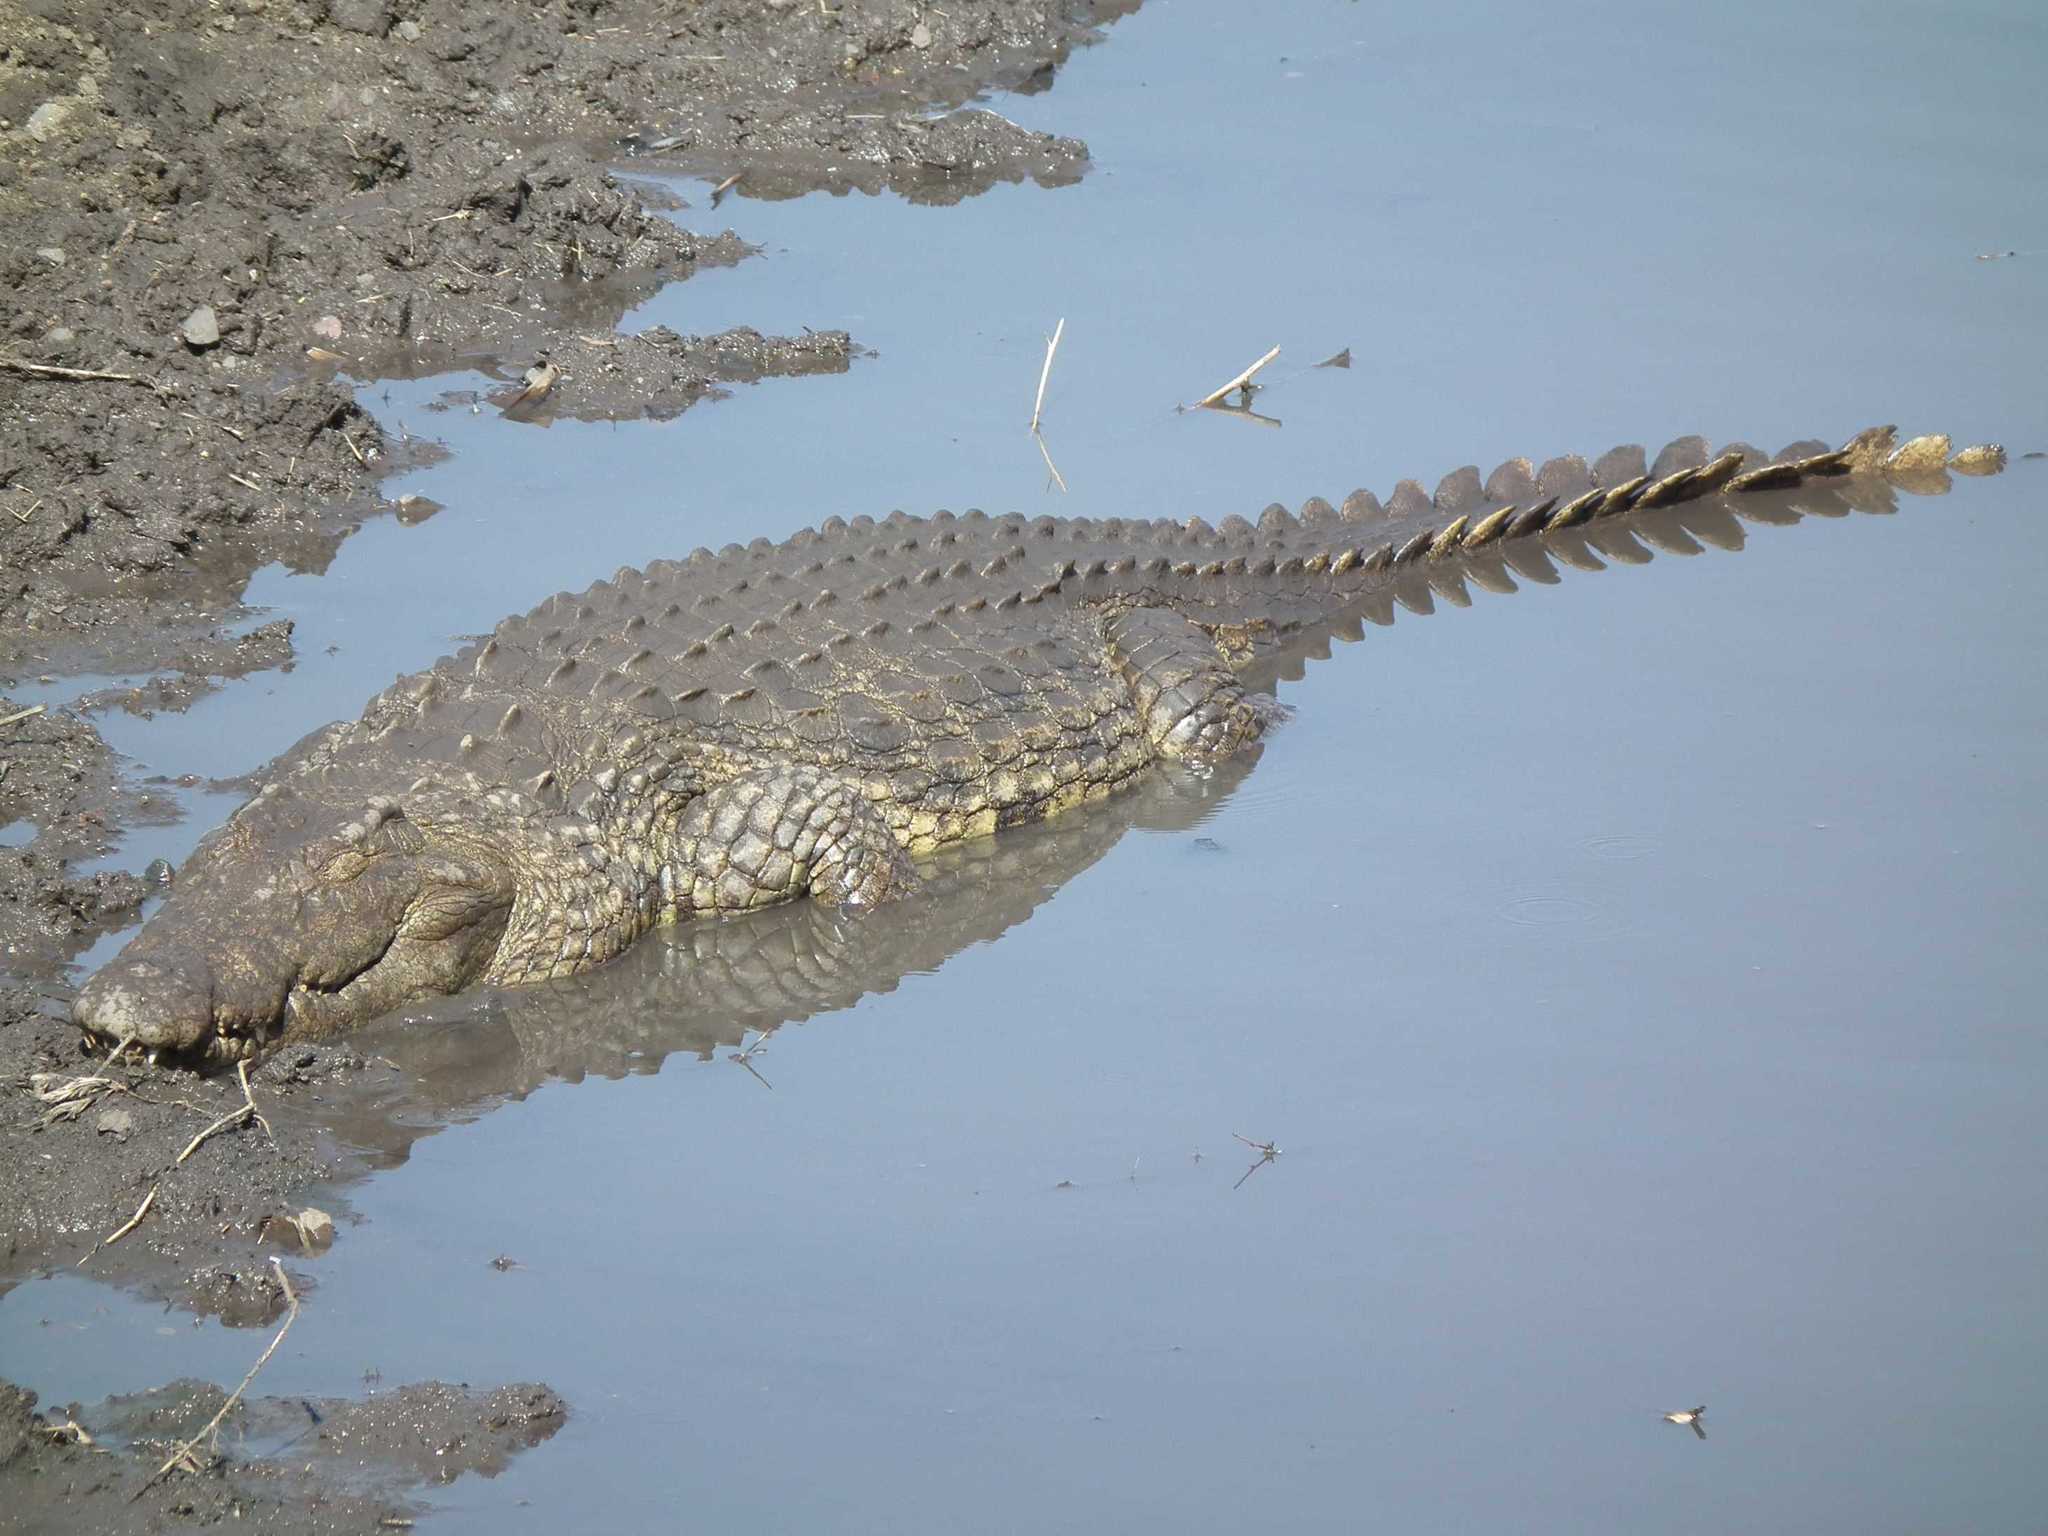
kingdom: Animalia
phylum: Chordata
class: Crocodylia
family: Crocodylidae
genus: Crocodylus
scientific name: Crocodylus niloticus
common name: Nile crocodile
